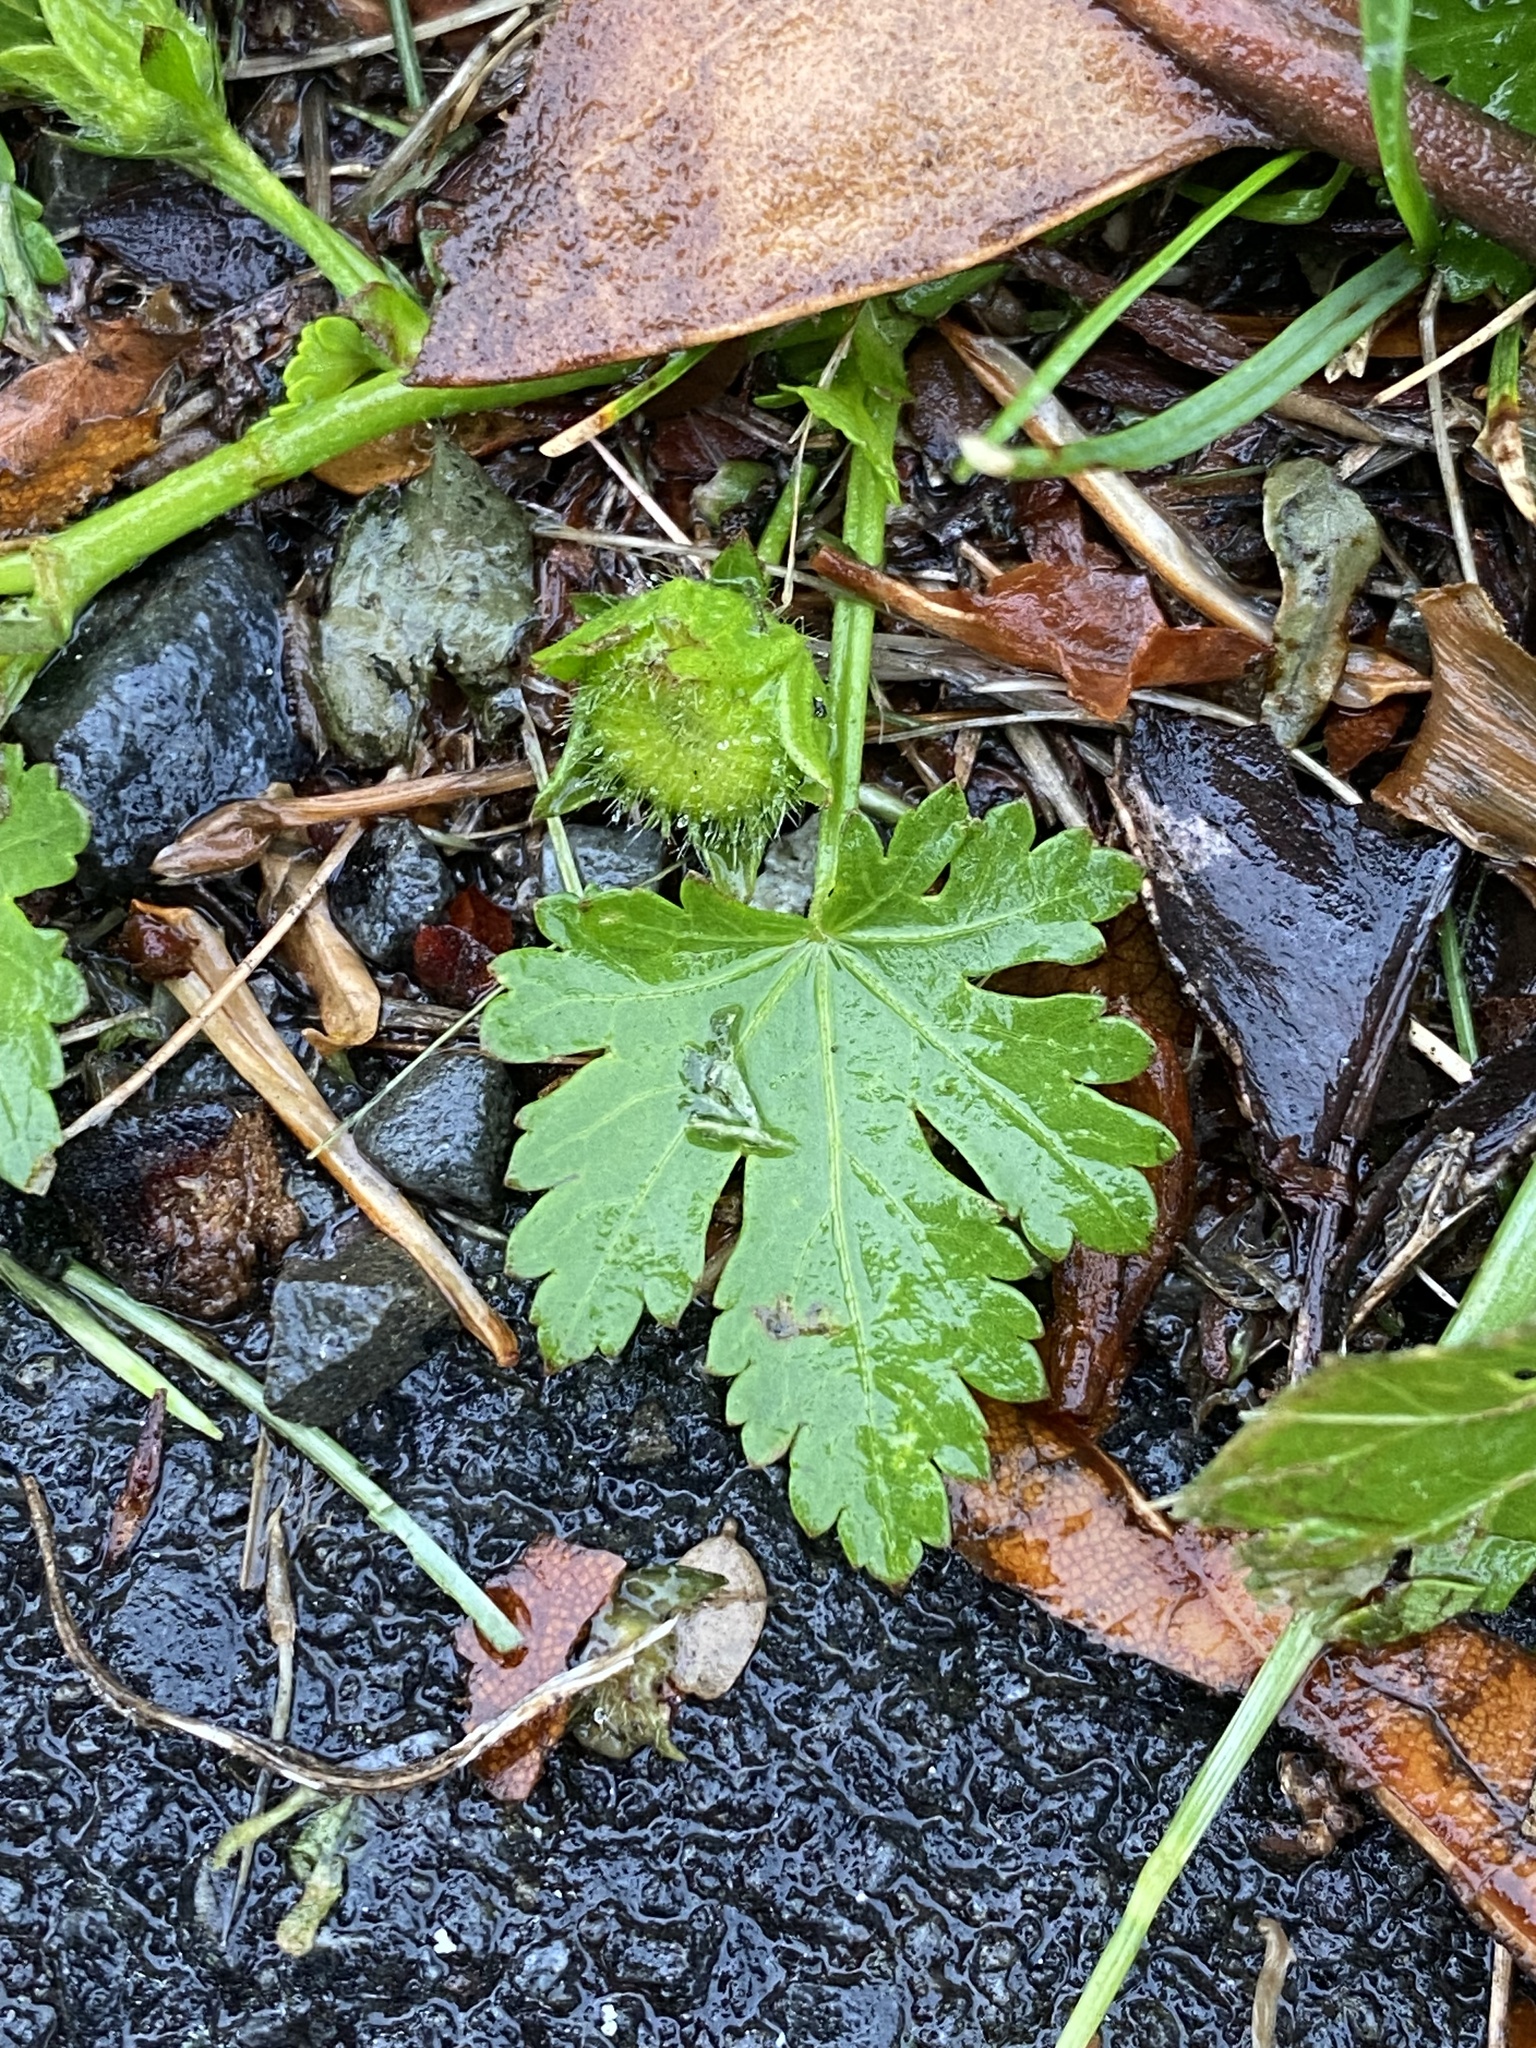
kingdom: Plantae
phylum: Tracheophyta
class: Magnoliopsida
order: Malvales
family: Malvaceae
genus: Modiola
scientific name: Modiola caroliniana
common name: Carolina bristlemallow
